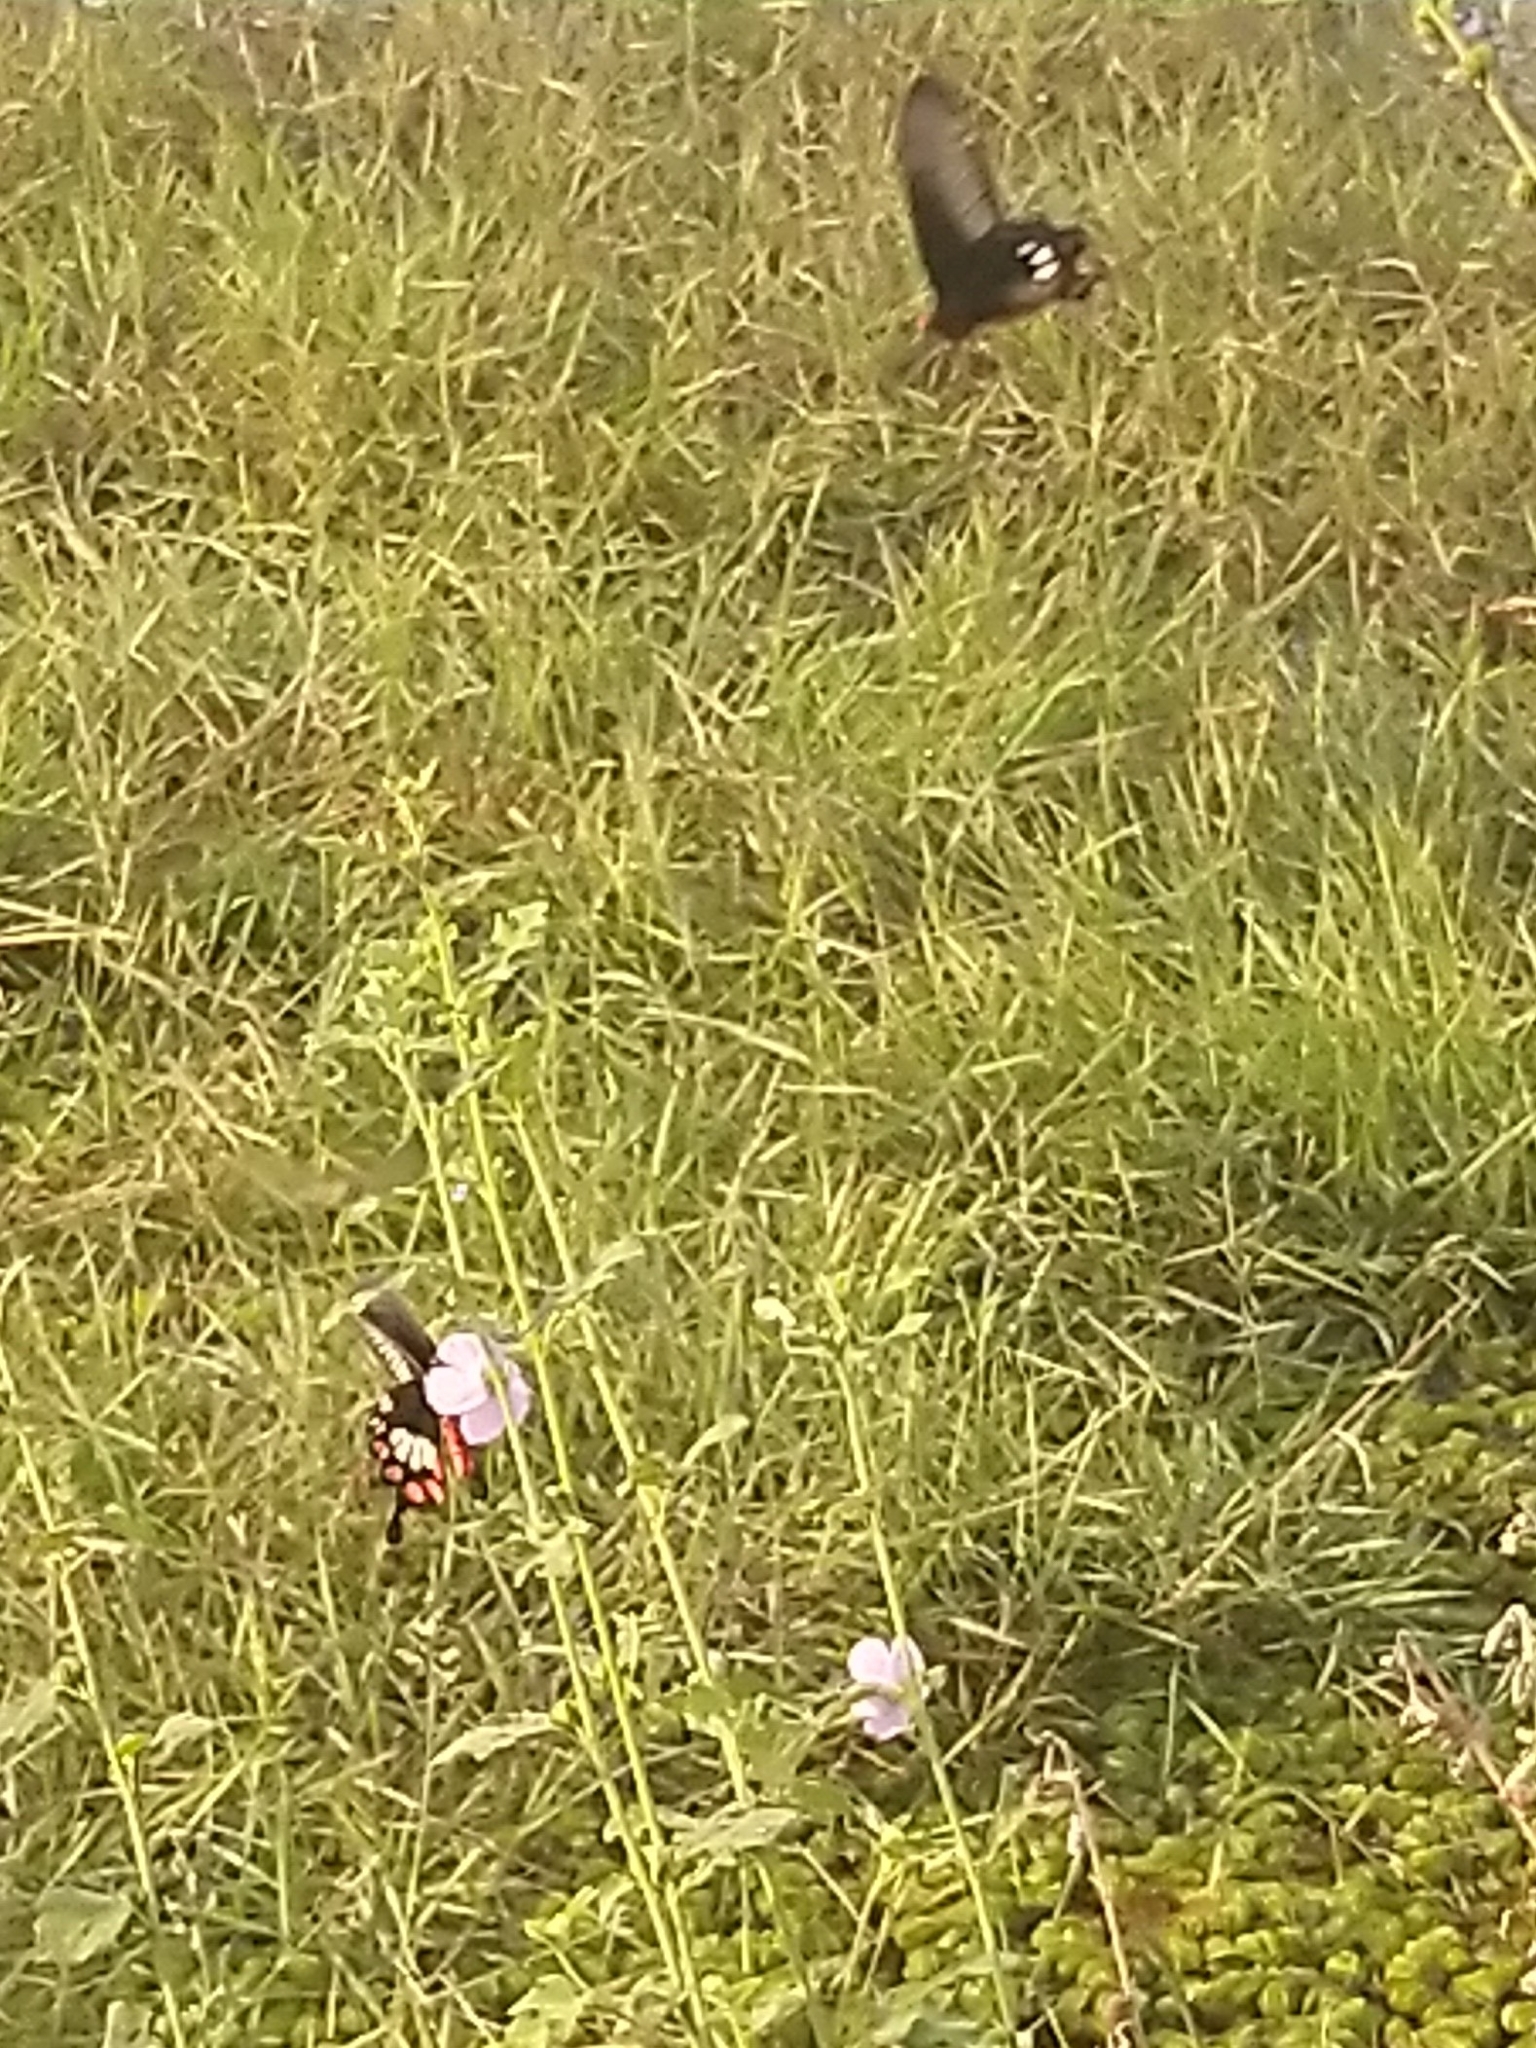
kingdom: Animalia
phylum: Arthropoda
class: Insecta
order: Lepidoptera
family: Papilionidae
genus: Pachliopta
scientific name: Pachliopta aristolochiae
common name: Common rose
